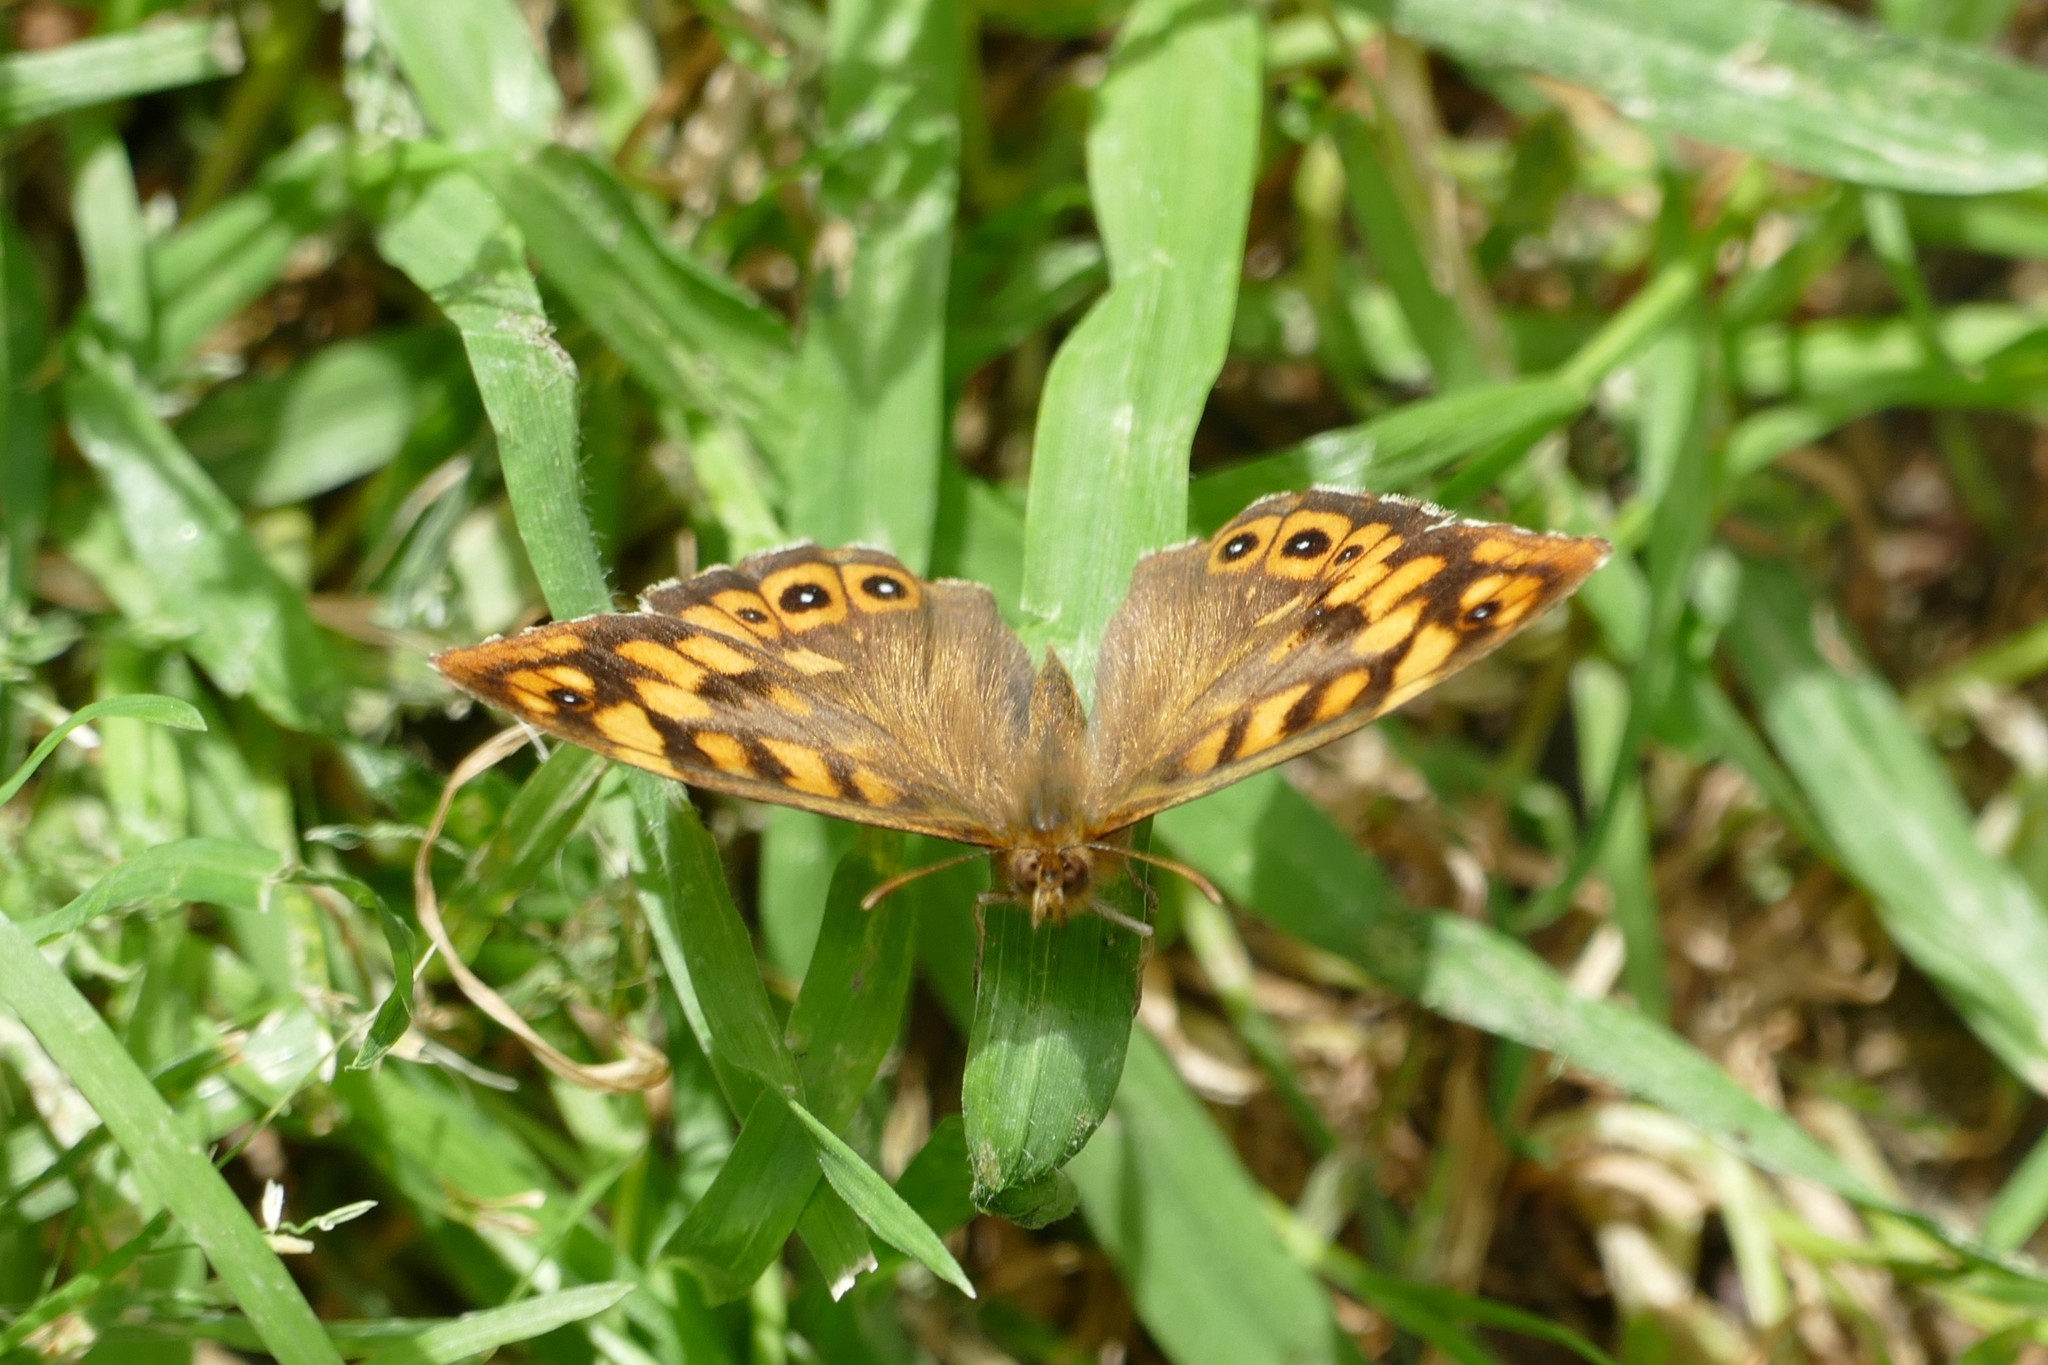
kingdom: Animalia
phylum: Arthropoda
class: Insecta
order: Lepidoptera
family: Nymphalidae
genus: Pararge
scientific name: Pararge aegeria
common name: Speckled wood
